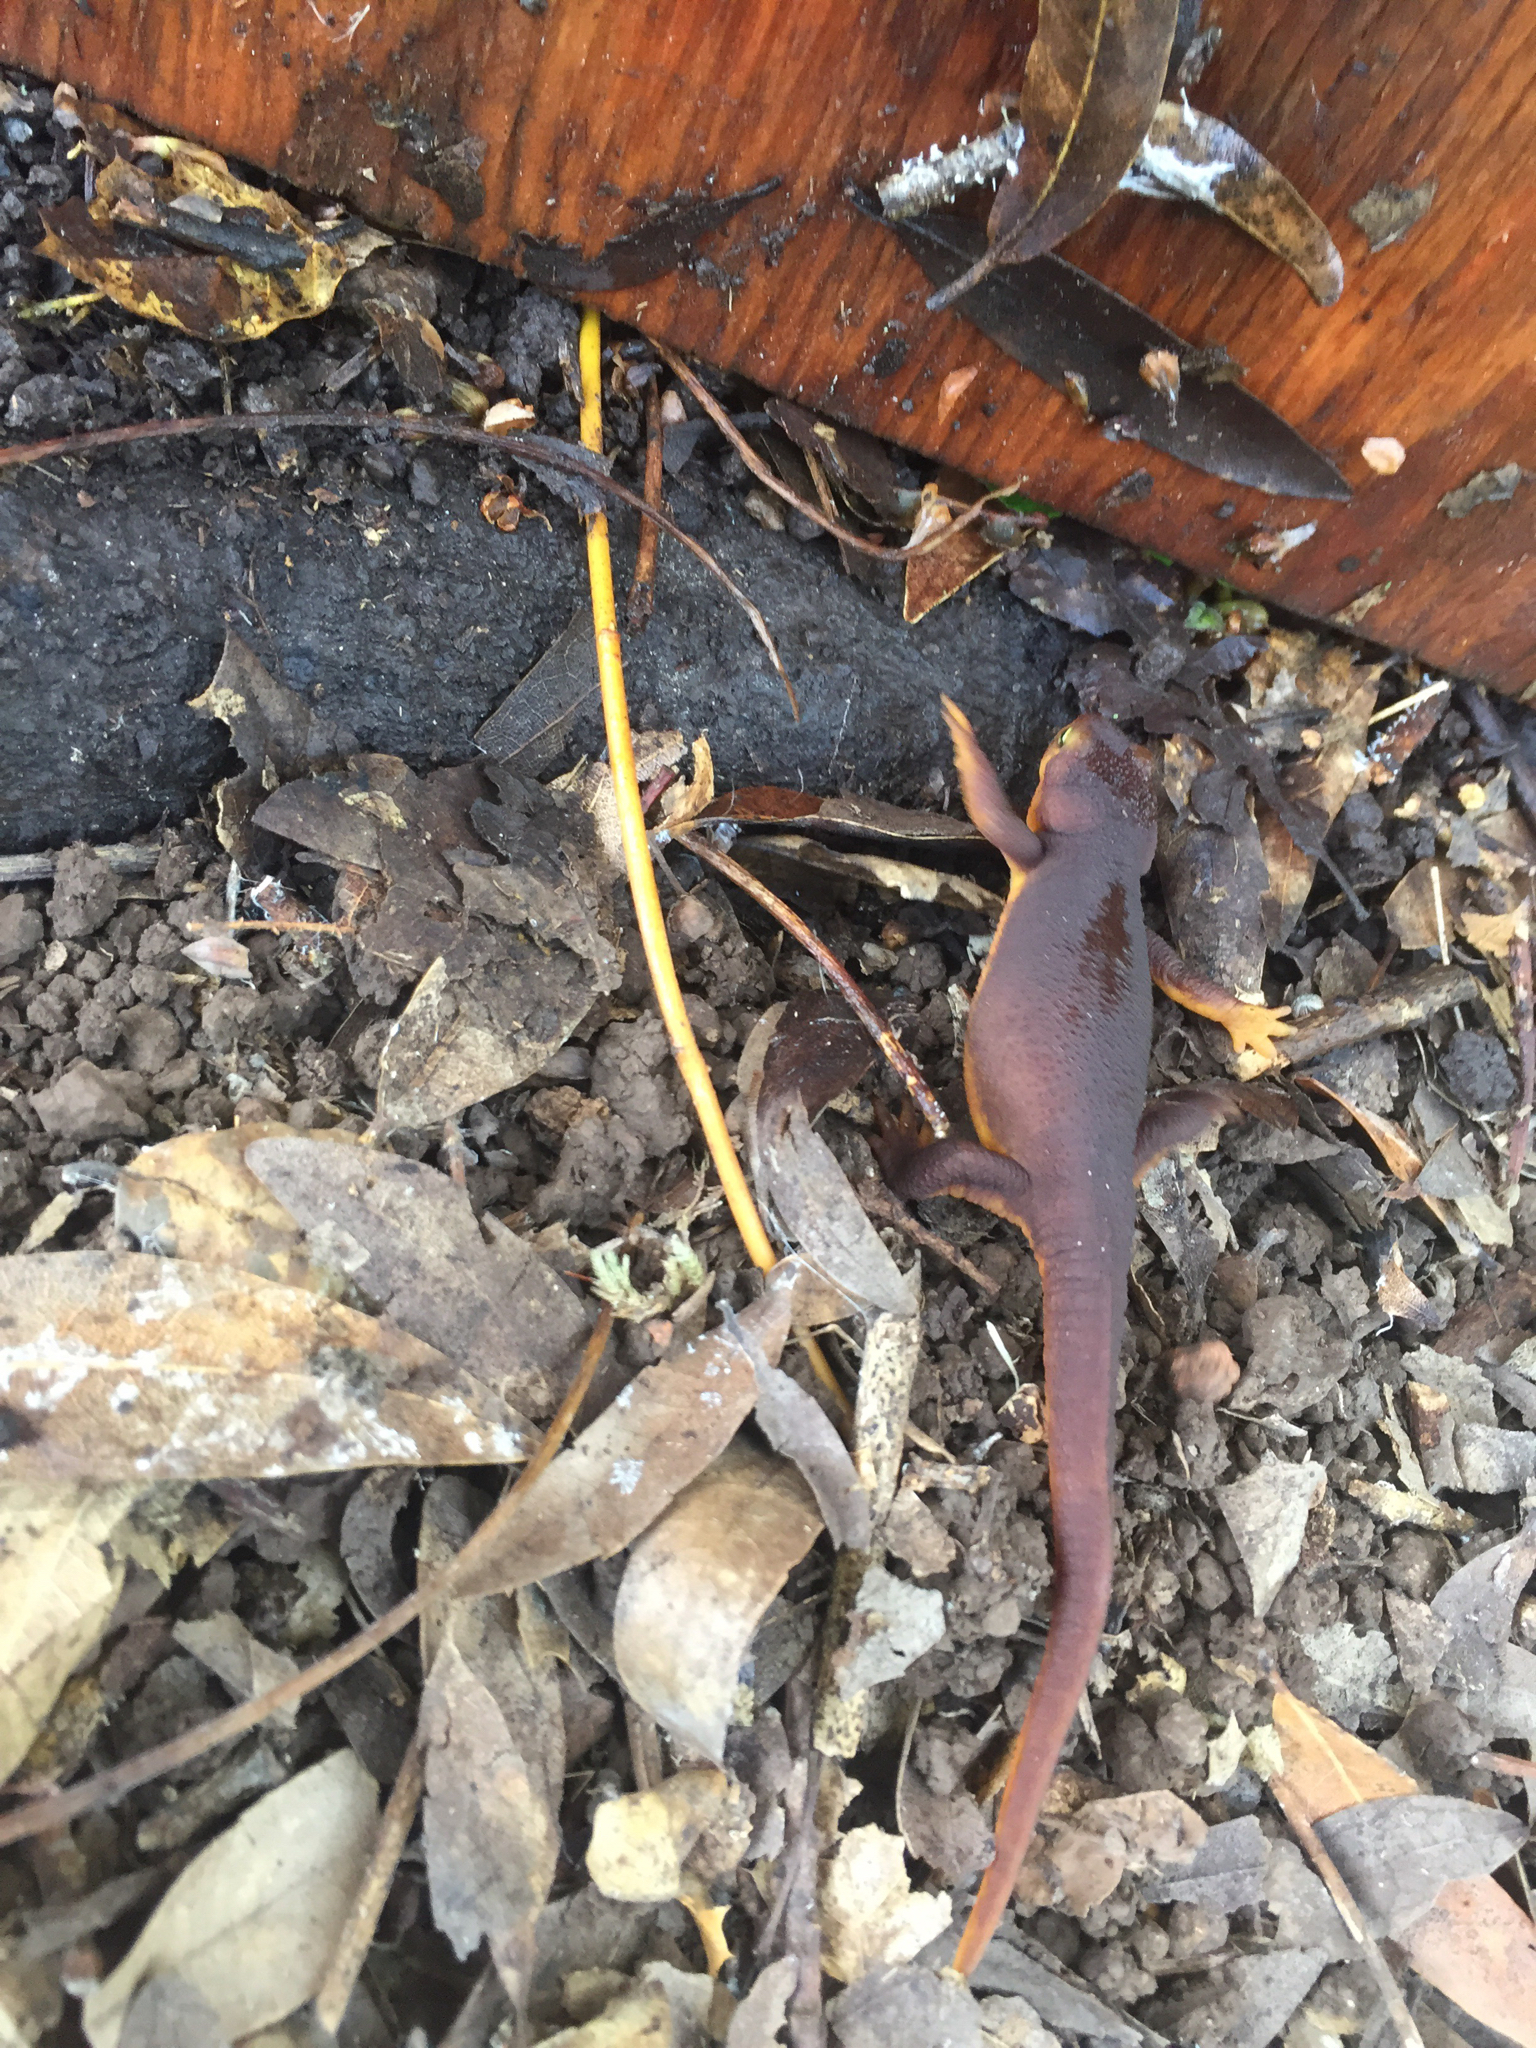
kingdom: Animalia
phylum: Chordata
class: Amphibia
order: Caudata
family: Salamandridae
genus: Taricha
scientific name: Taricha torosa
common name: California newt
